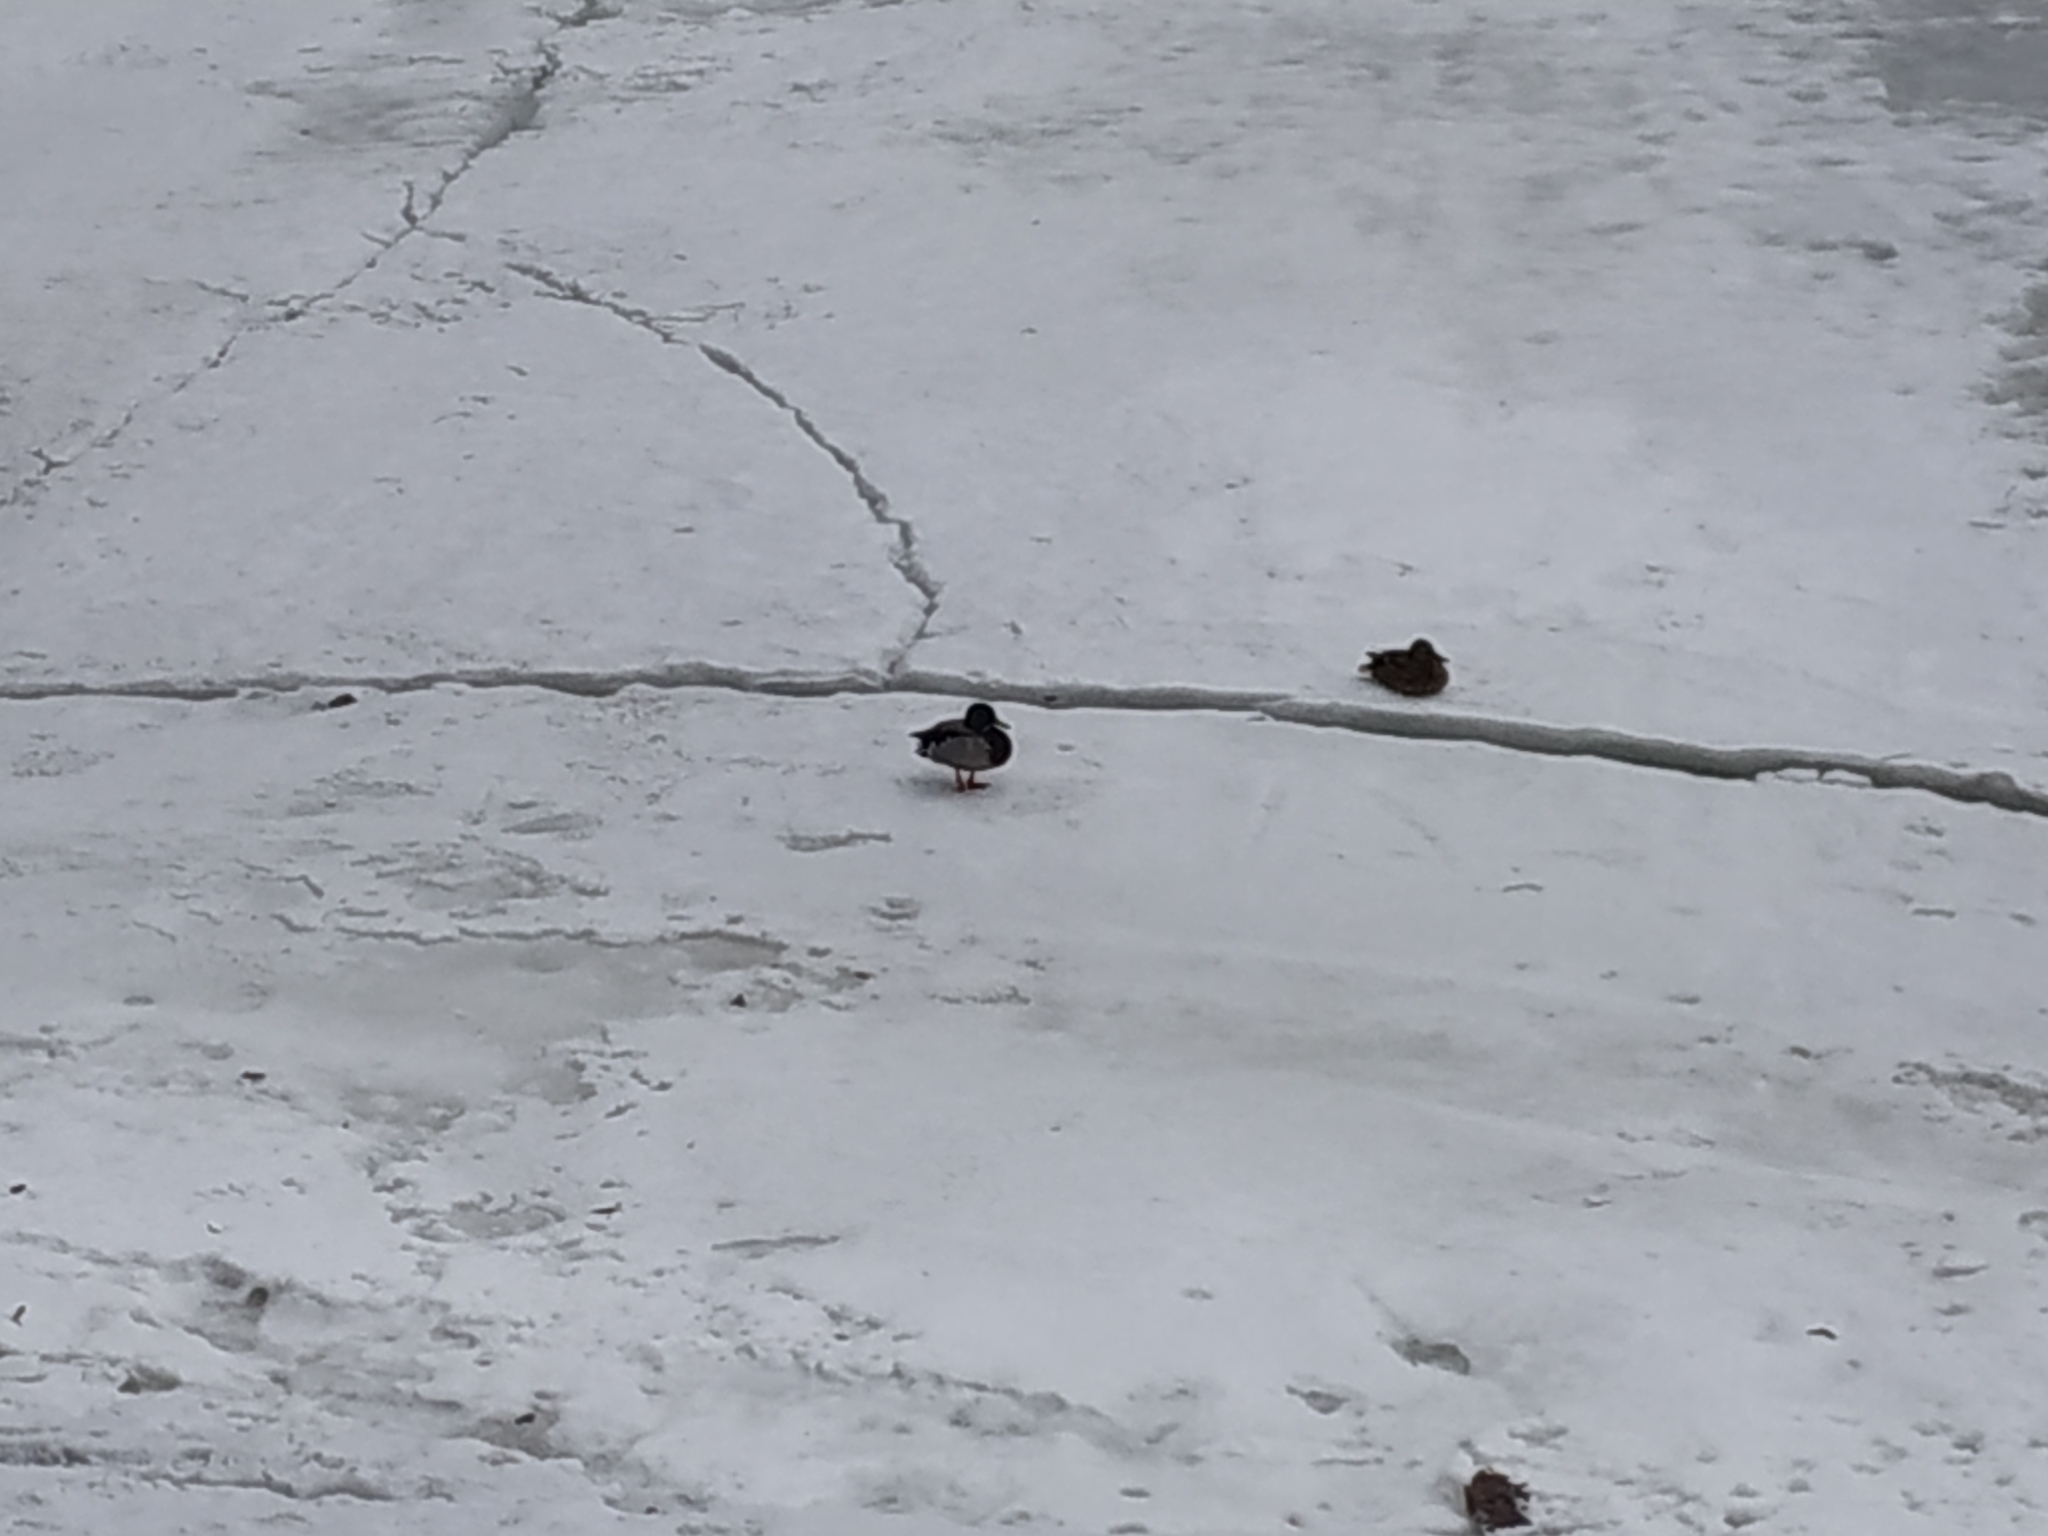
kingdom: Animalia
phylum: Chordata
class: Aves
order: Anseriformes
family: Anatidae
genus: Anas
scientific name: Anas platyrhynchos
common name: Mallard
